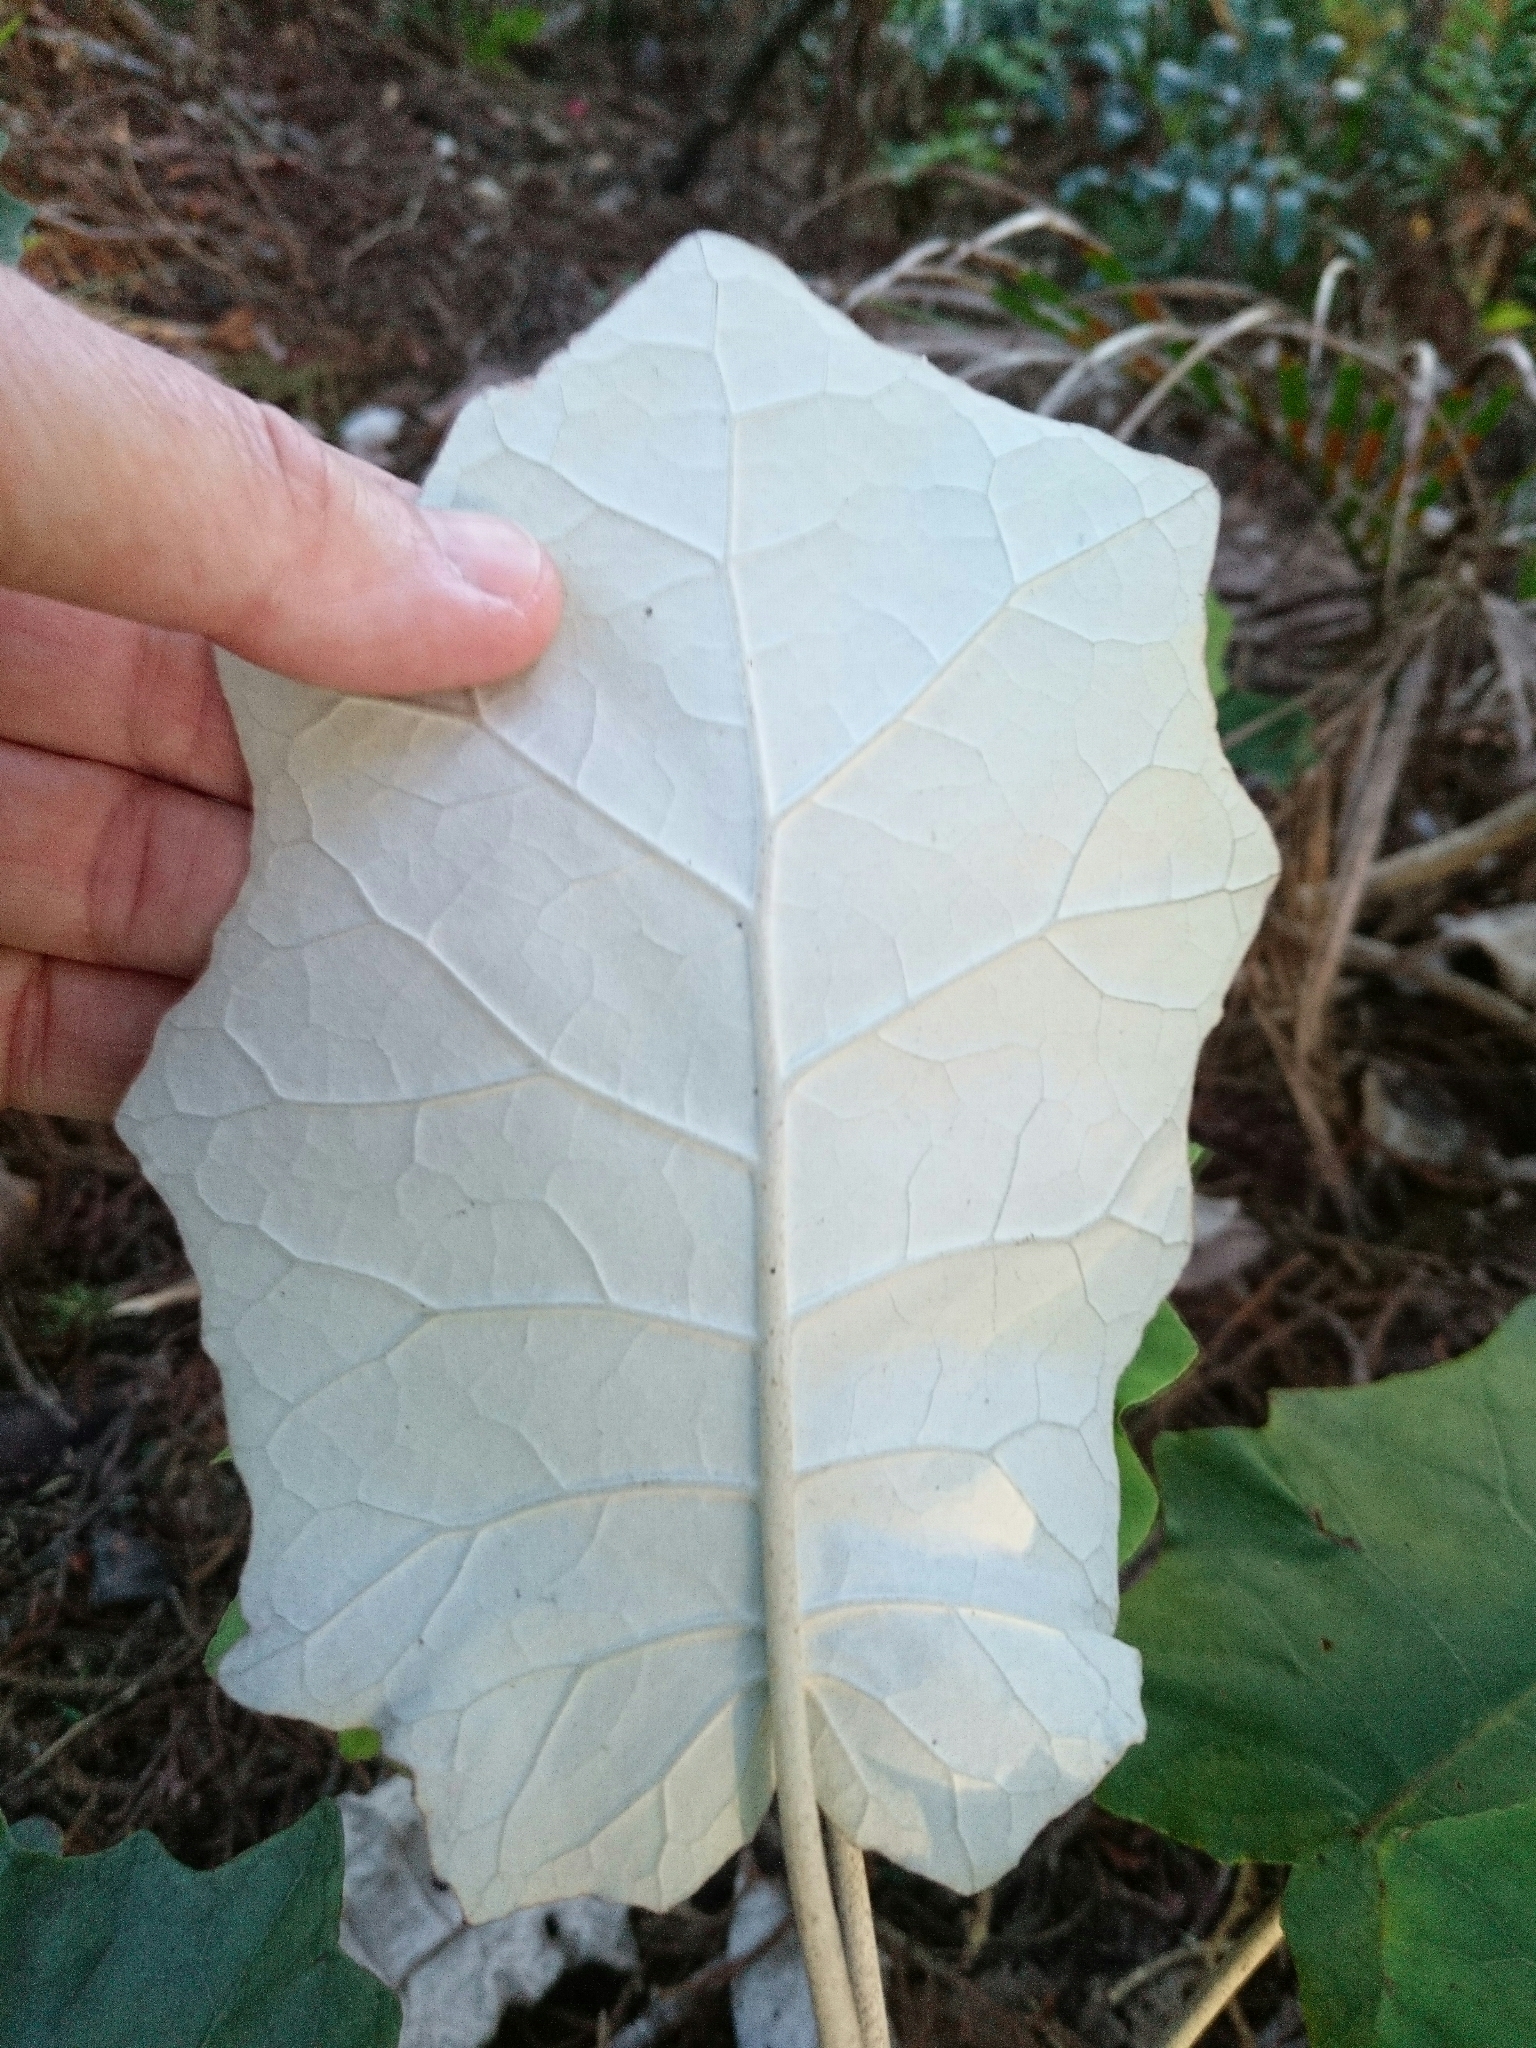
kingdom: Plantae
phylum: Tracheophyta
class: Magnoliopsida
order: Asterales
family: Asteraceae
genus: Brachyglottis
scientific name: Brachyglottis repanda
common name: Hedge ragwort
